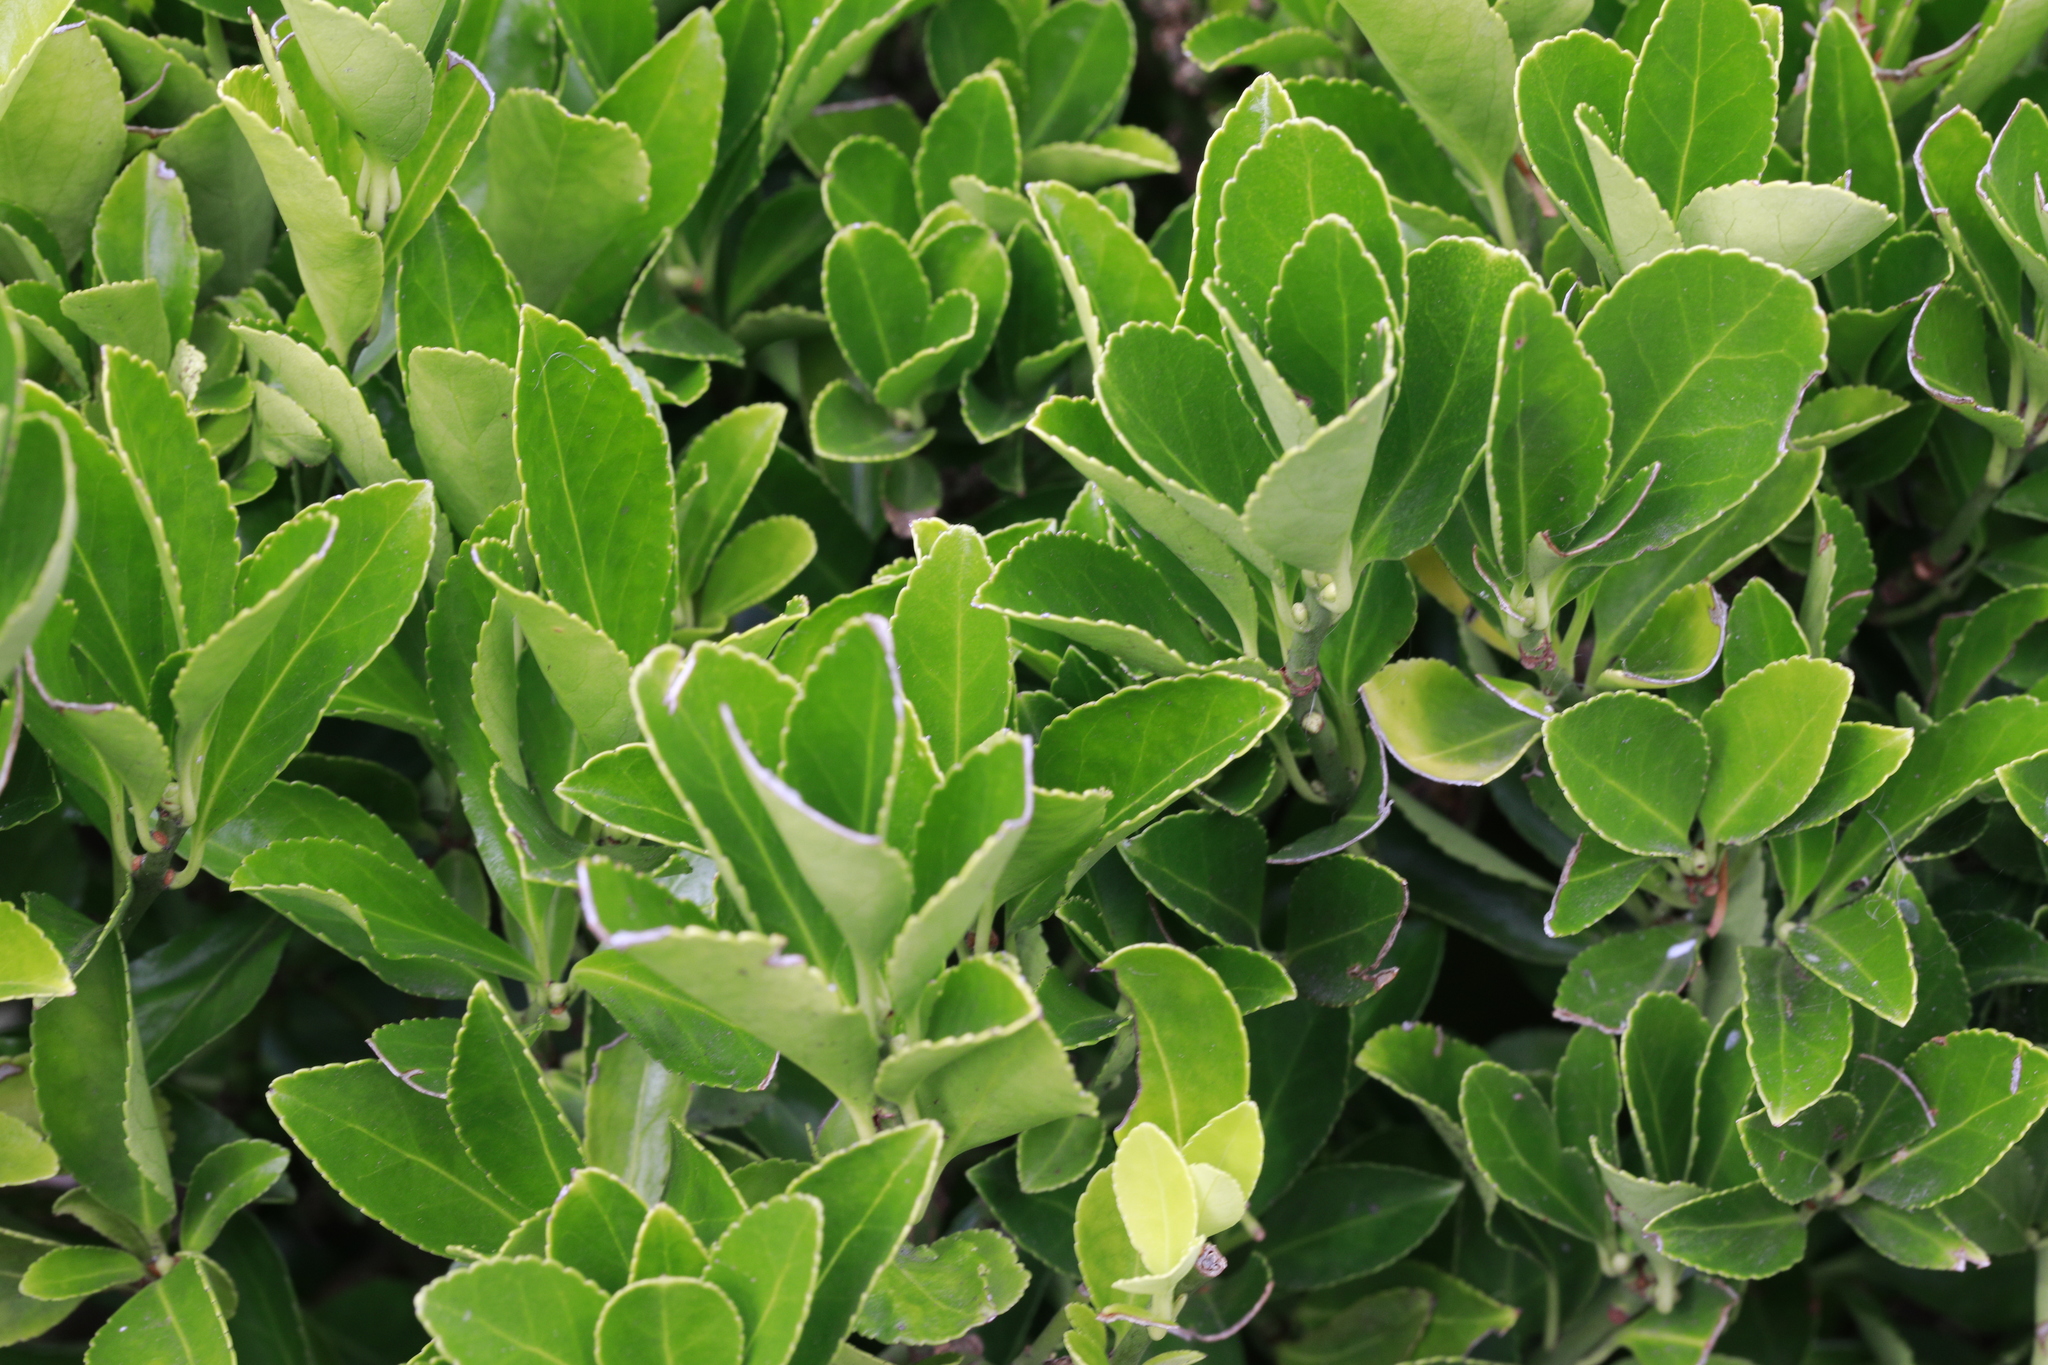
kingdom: Plantae
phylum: Tracheophyta
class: Magnoliopsida
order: Celastrales
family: Celastraceae
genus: Euonymus
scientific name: Euonymus japonicus
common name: Japanese spindletree
